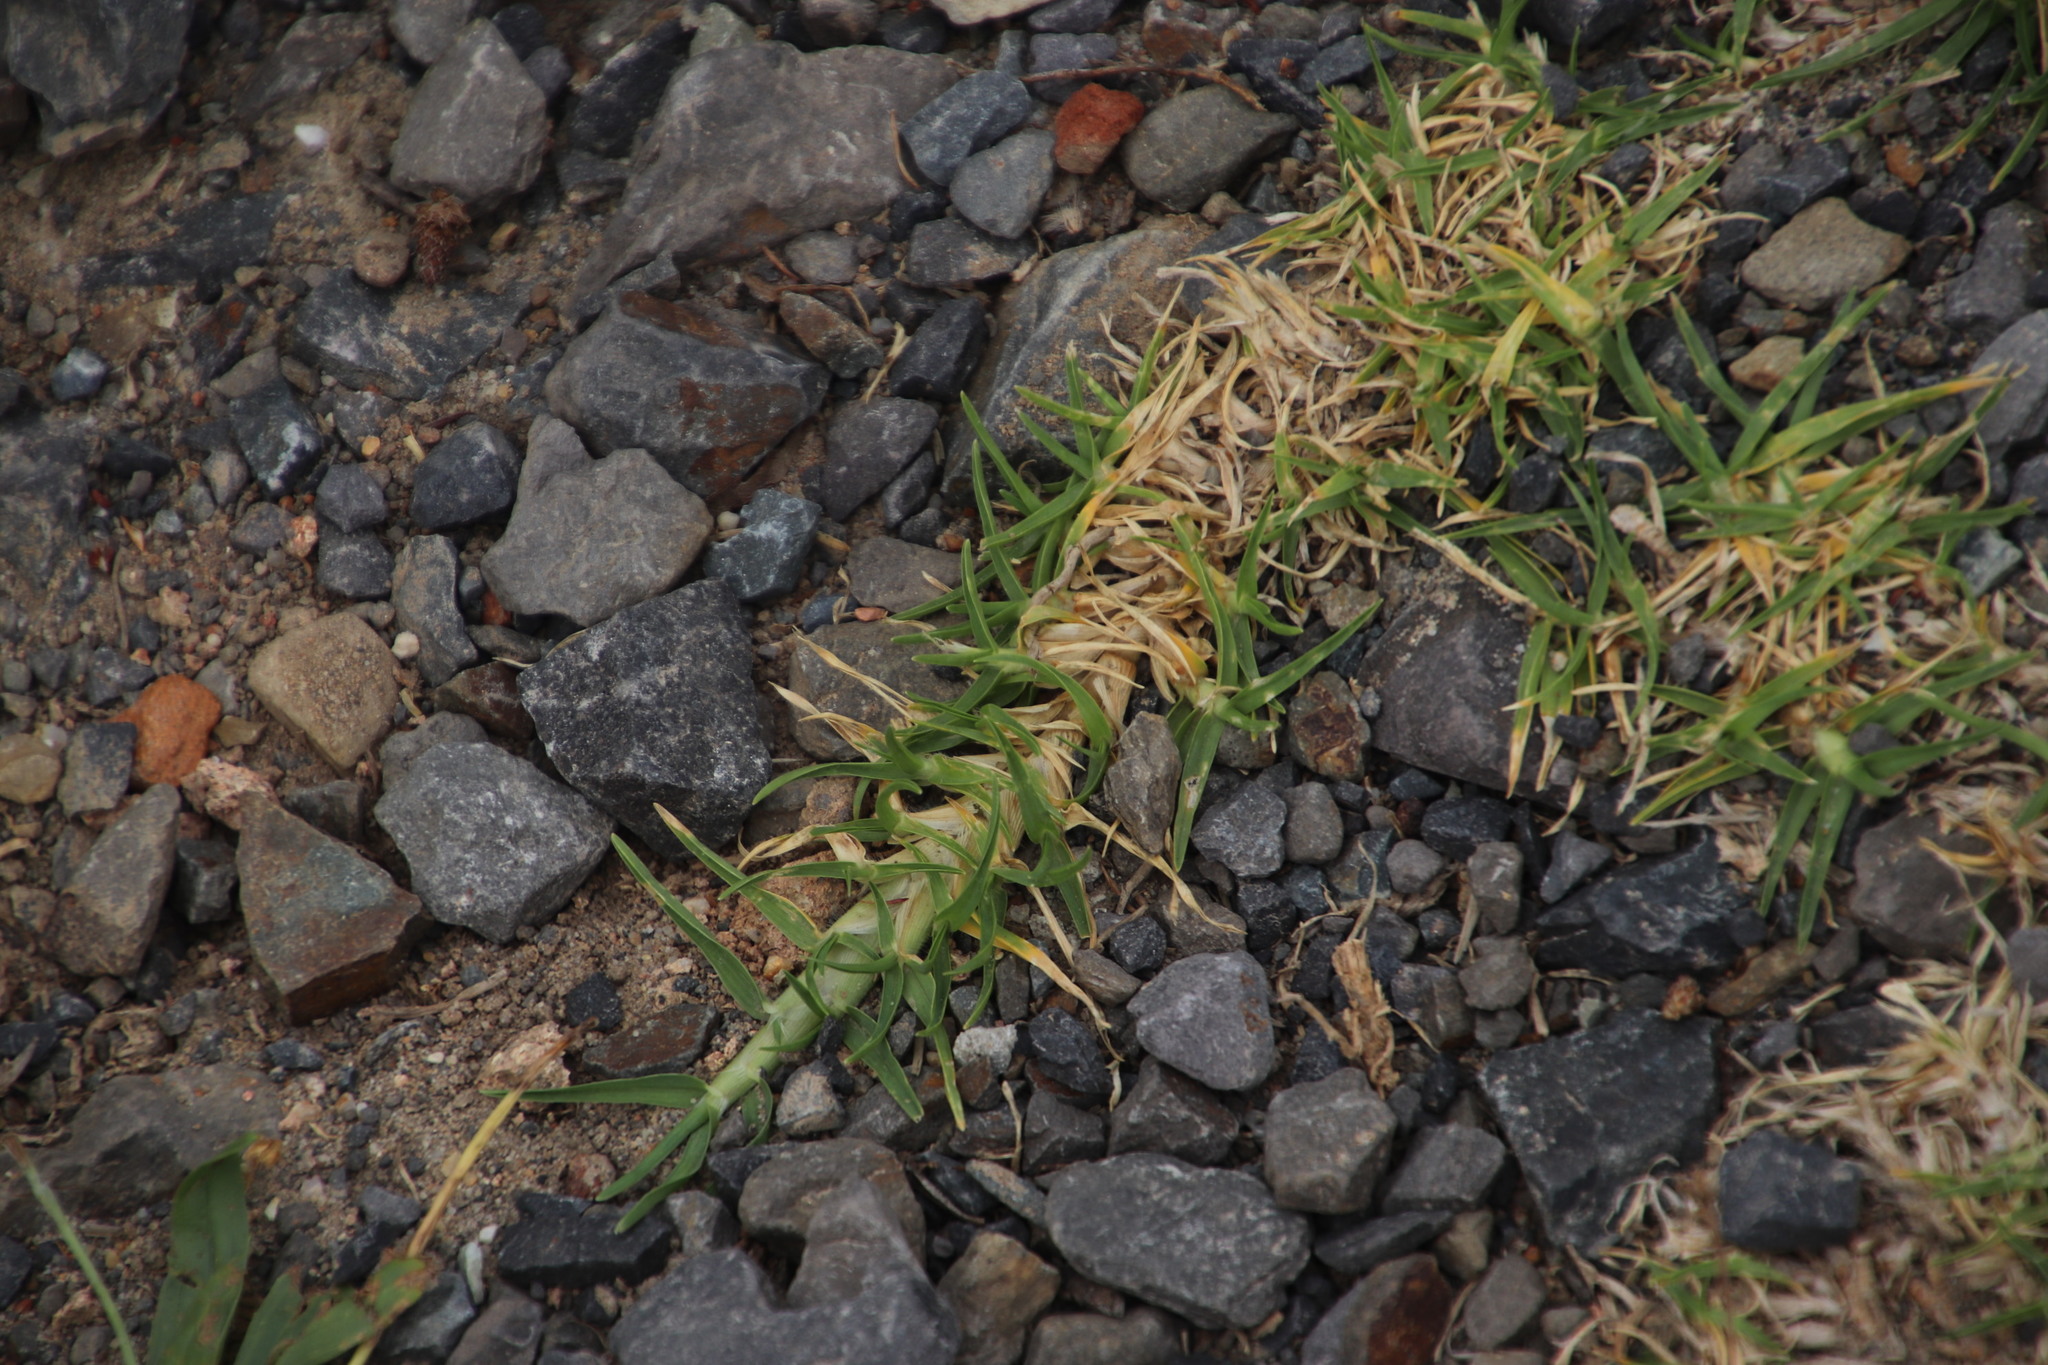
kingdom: Plantae
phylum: Tracheophyta
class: Liliopsida
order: Poales
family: Poaceae
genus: Cenchrus
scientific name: Cenchrus clandestinus
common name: Kikuyugrass
